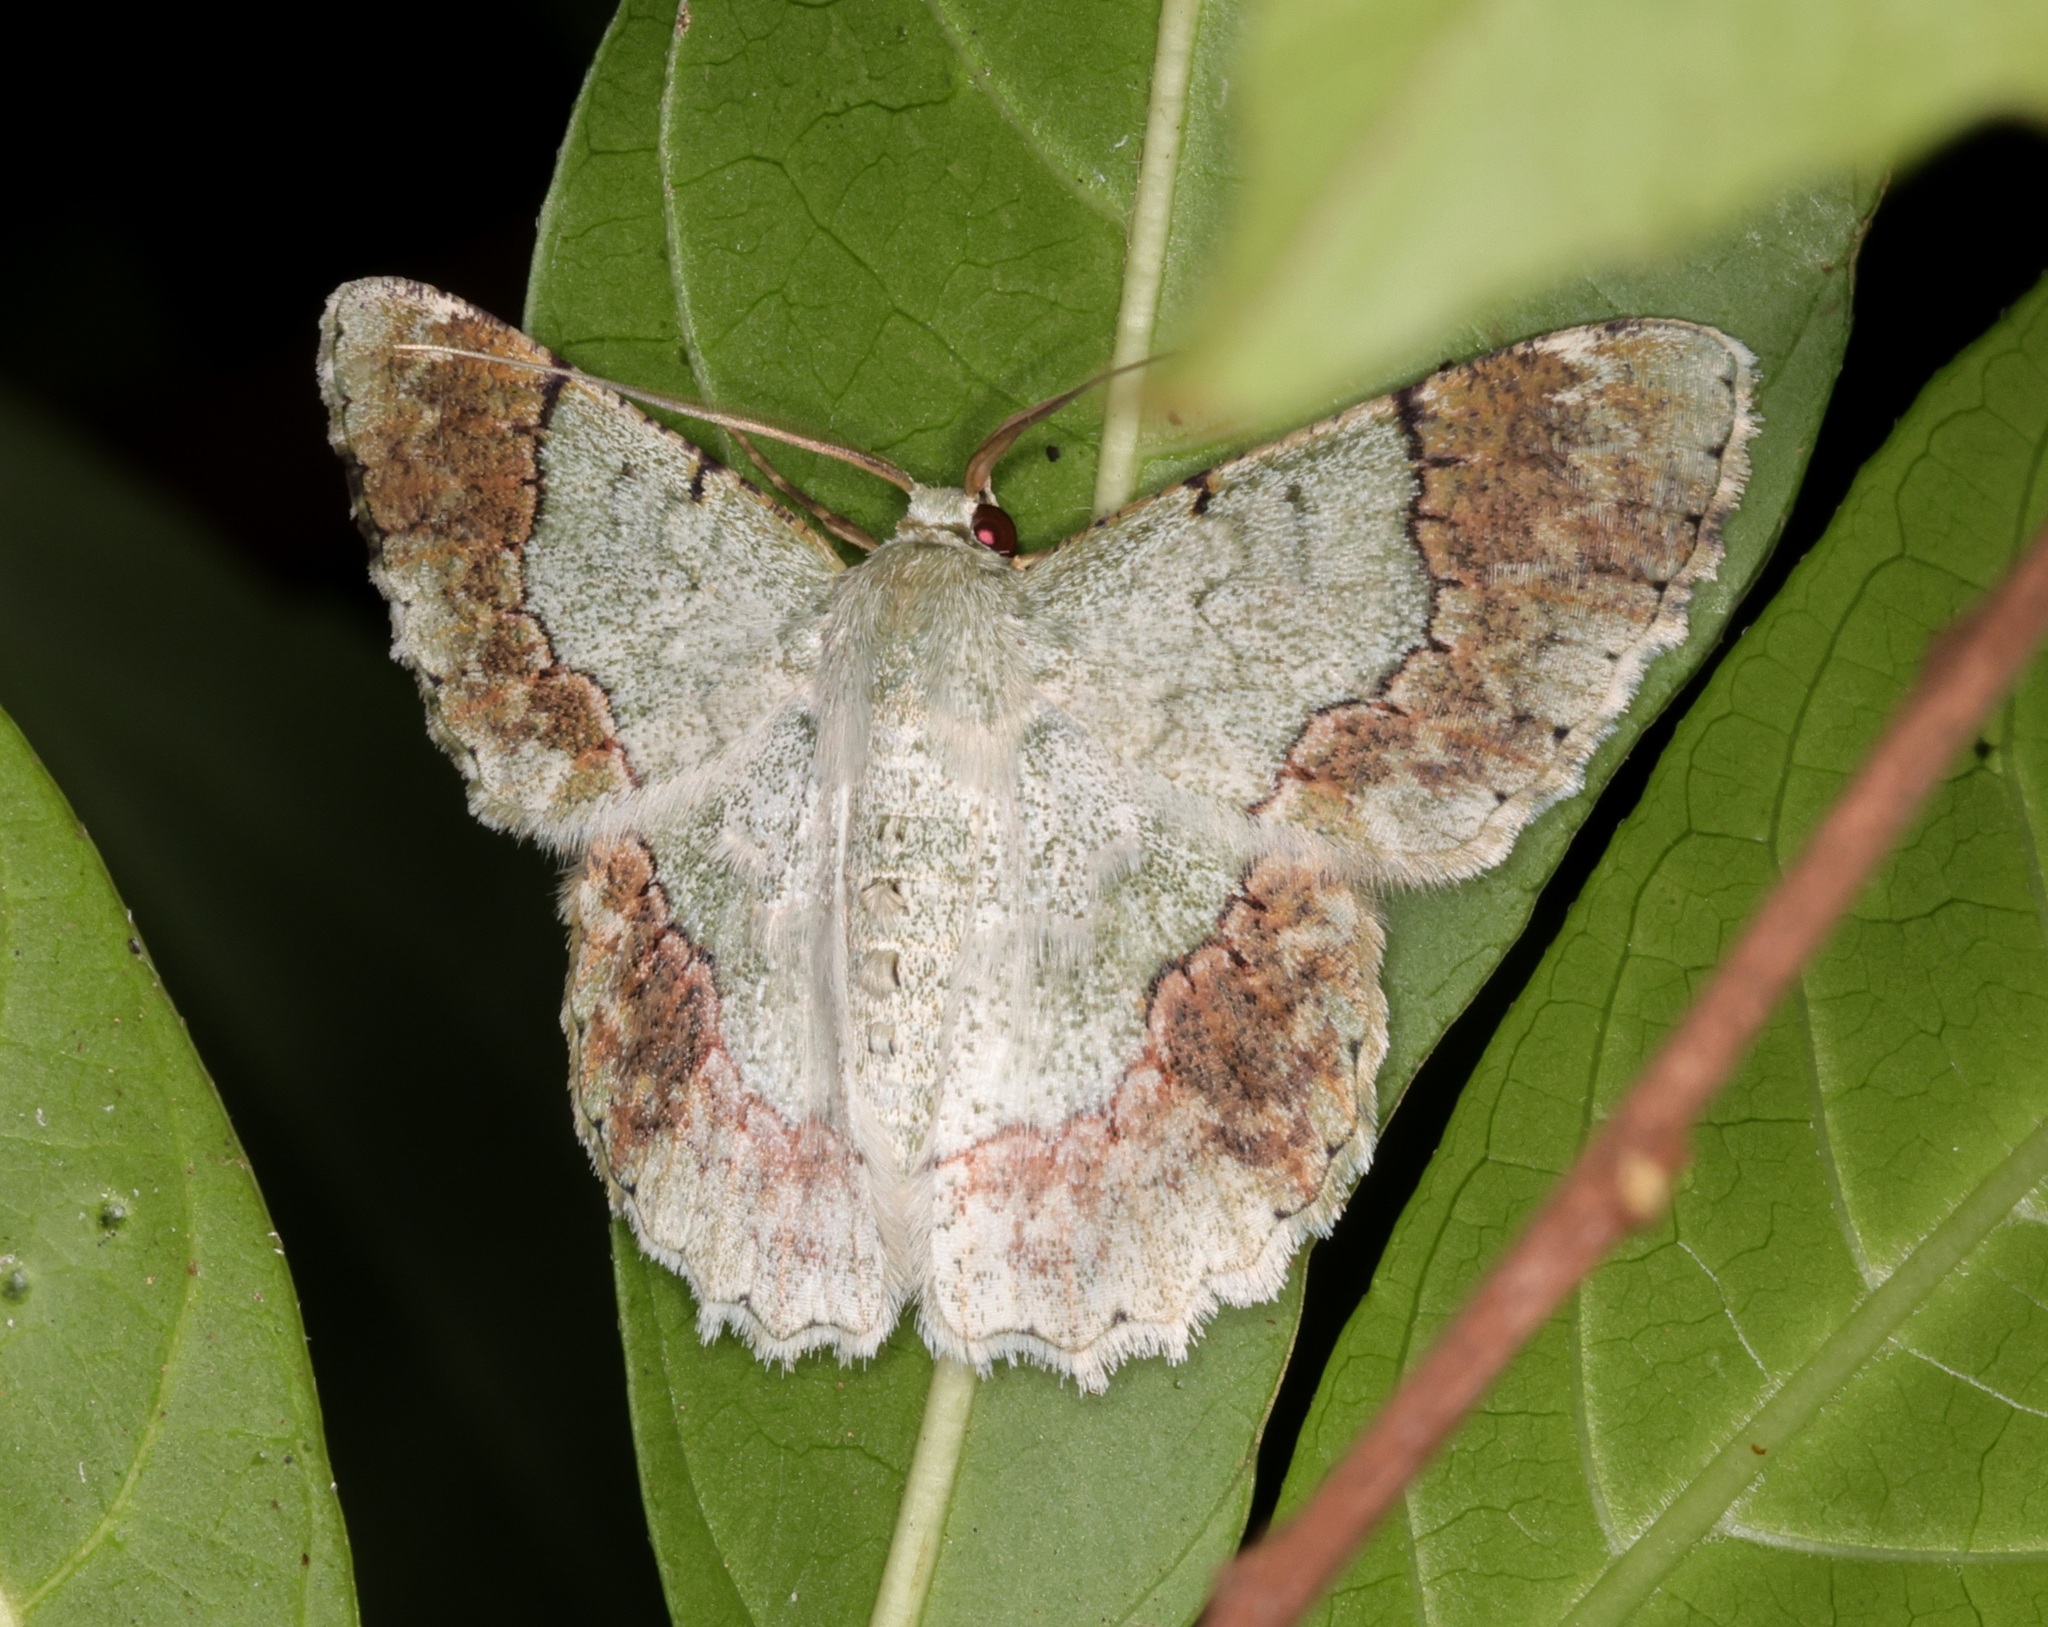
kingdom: Animalia
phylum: Arthropoda
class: Insecta
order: Lepidoptera
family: Geometridae
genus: Pingasa
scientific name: Pingasa ruginaria
